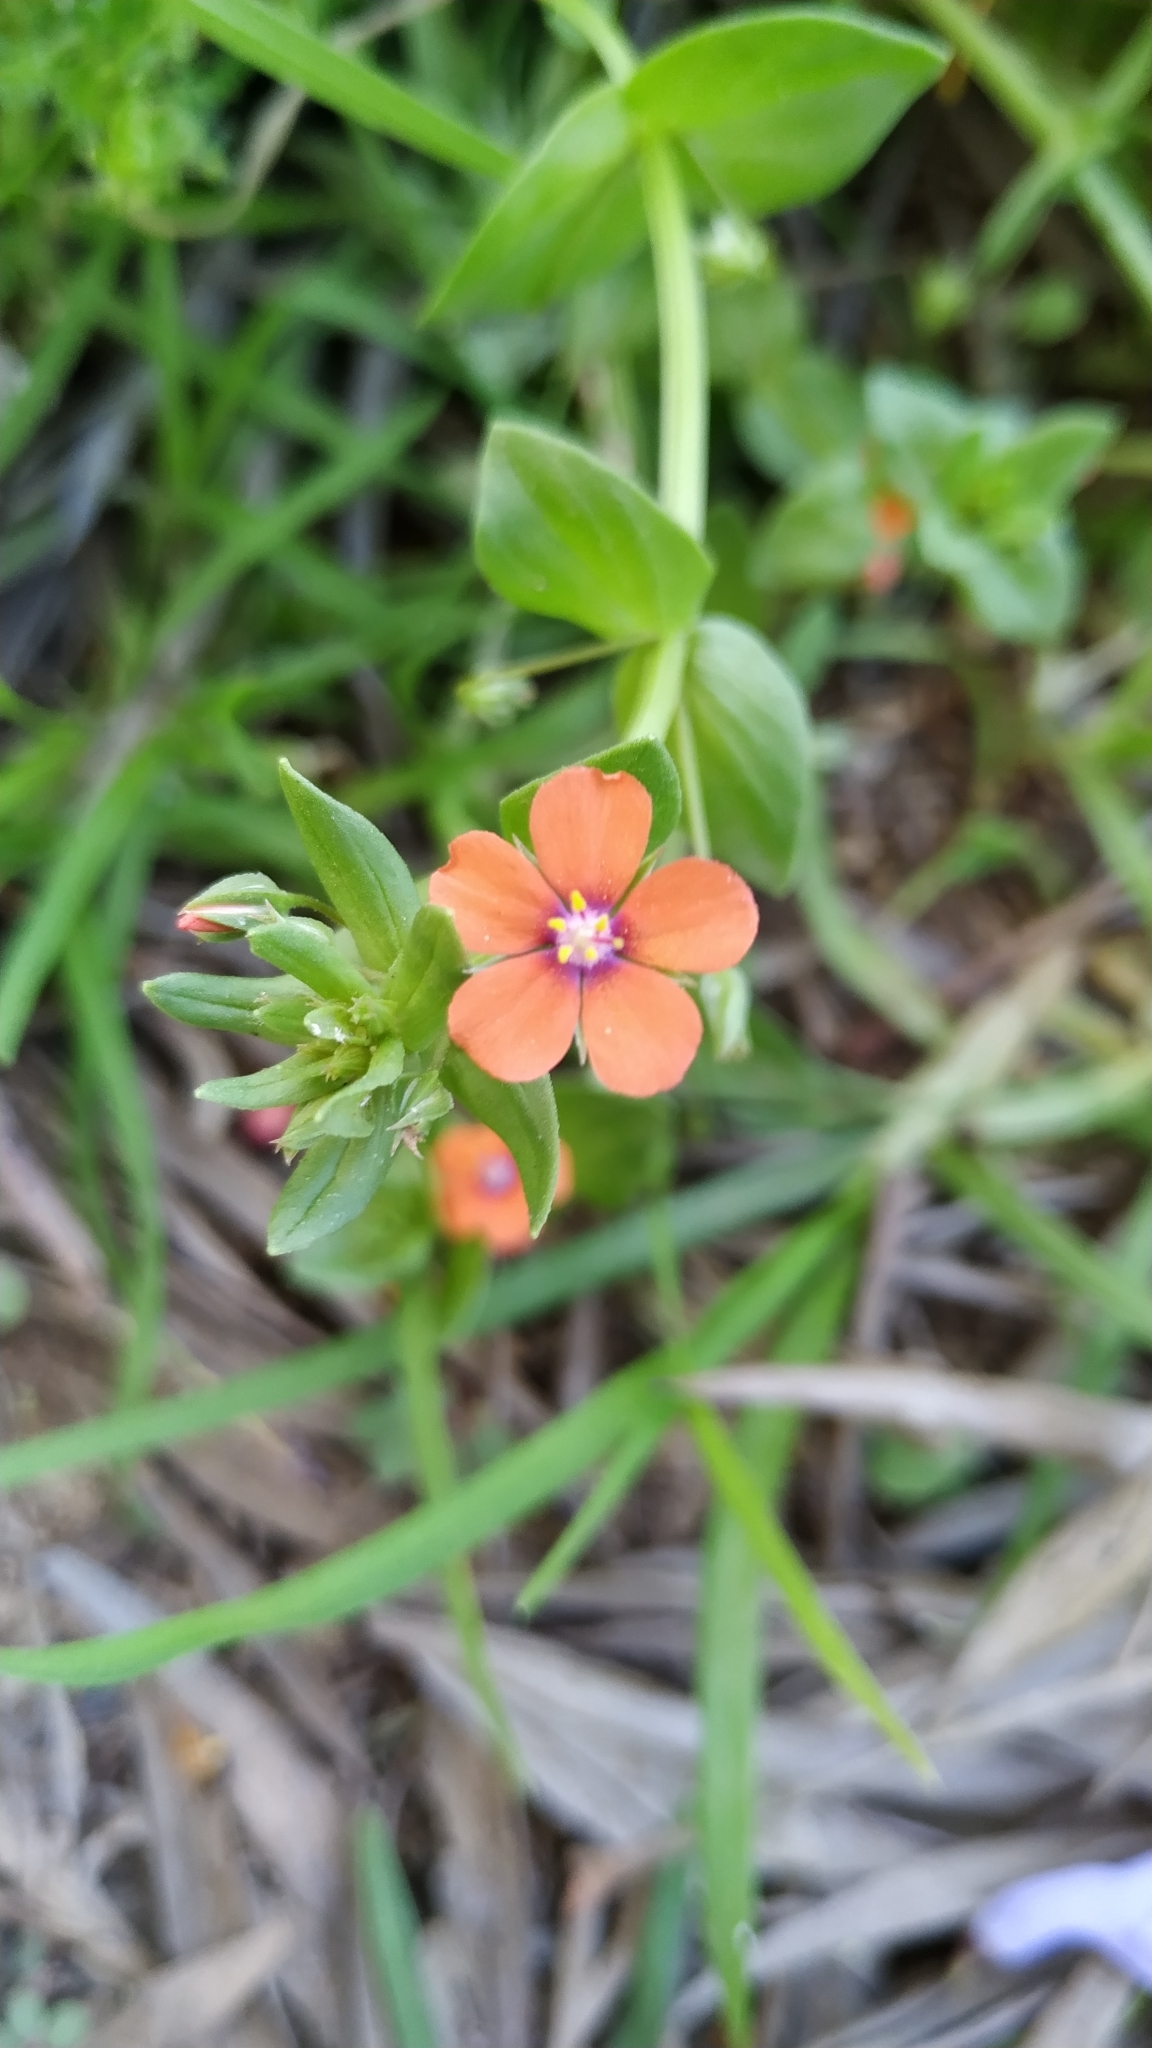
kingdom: Plantae
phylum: Tracheophyta
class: Magnoliopsida
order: Ericales
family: Primulaceae
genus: Lysimachia
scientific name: Lysimachia arvensis
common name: Scarlet pimpernel
